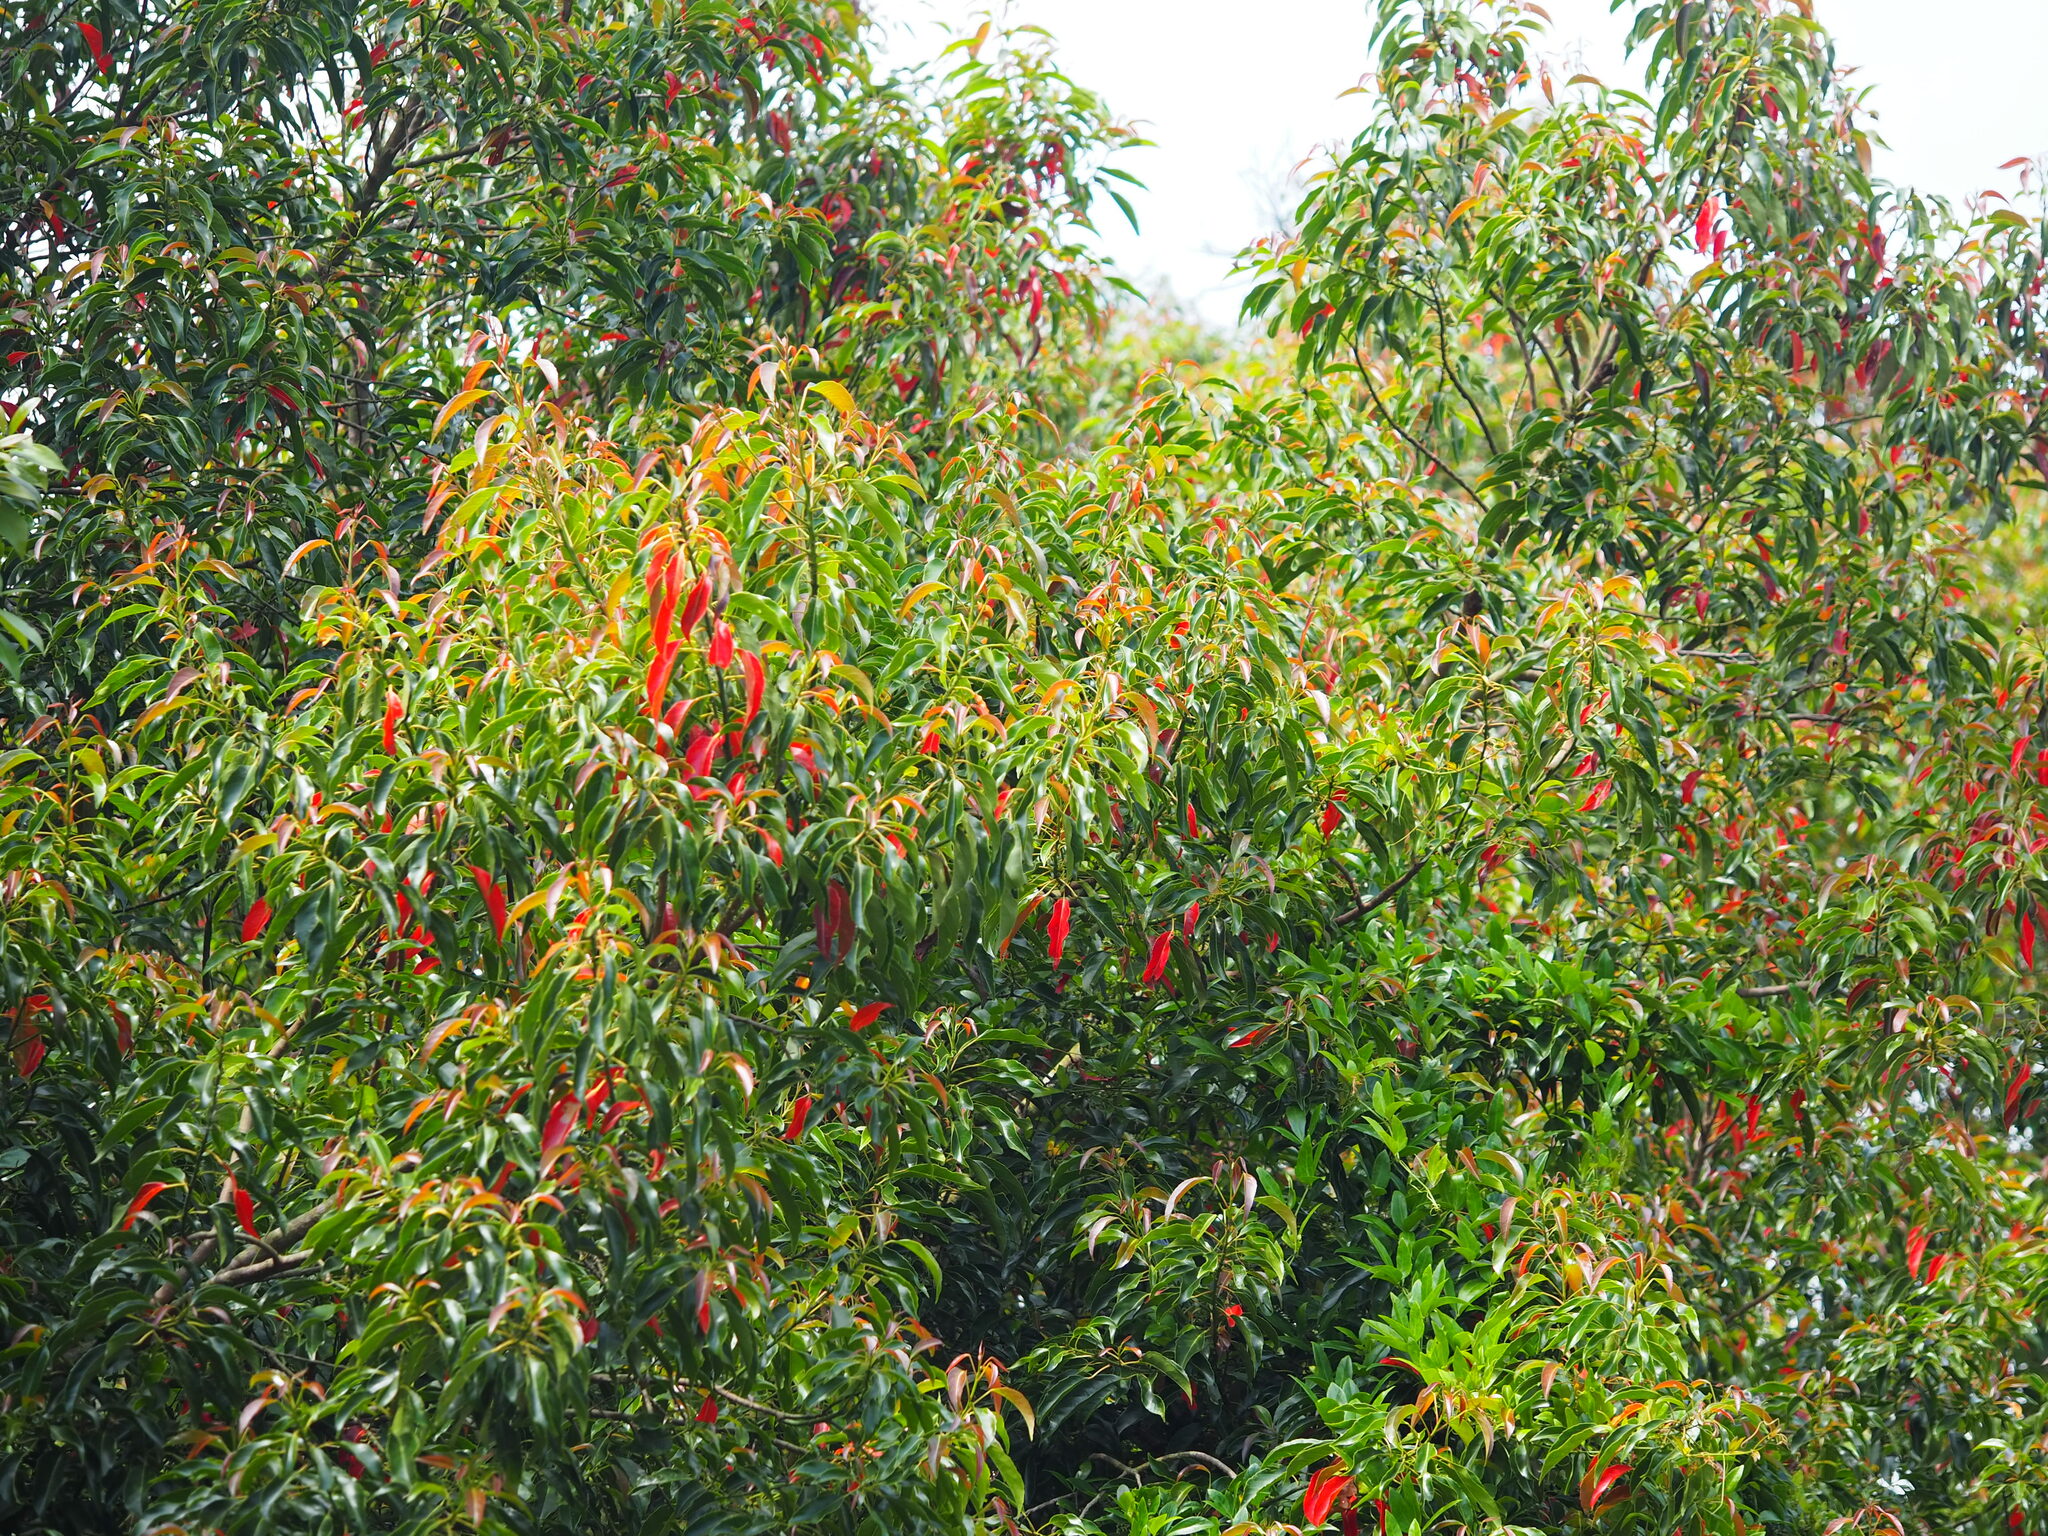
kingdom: Plantae
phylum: Tracheophyta
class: Magnoliopsida
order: Oxalidales
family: Elaeocarpaceae
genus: Elaeocarpus
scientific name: Elaeocarpus serratus
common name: Ceylon-olive
